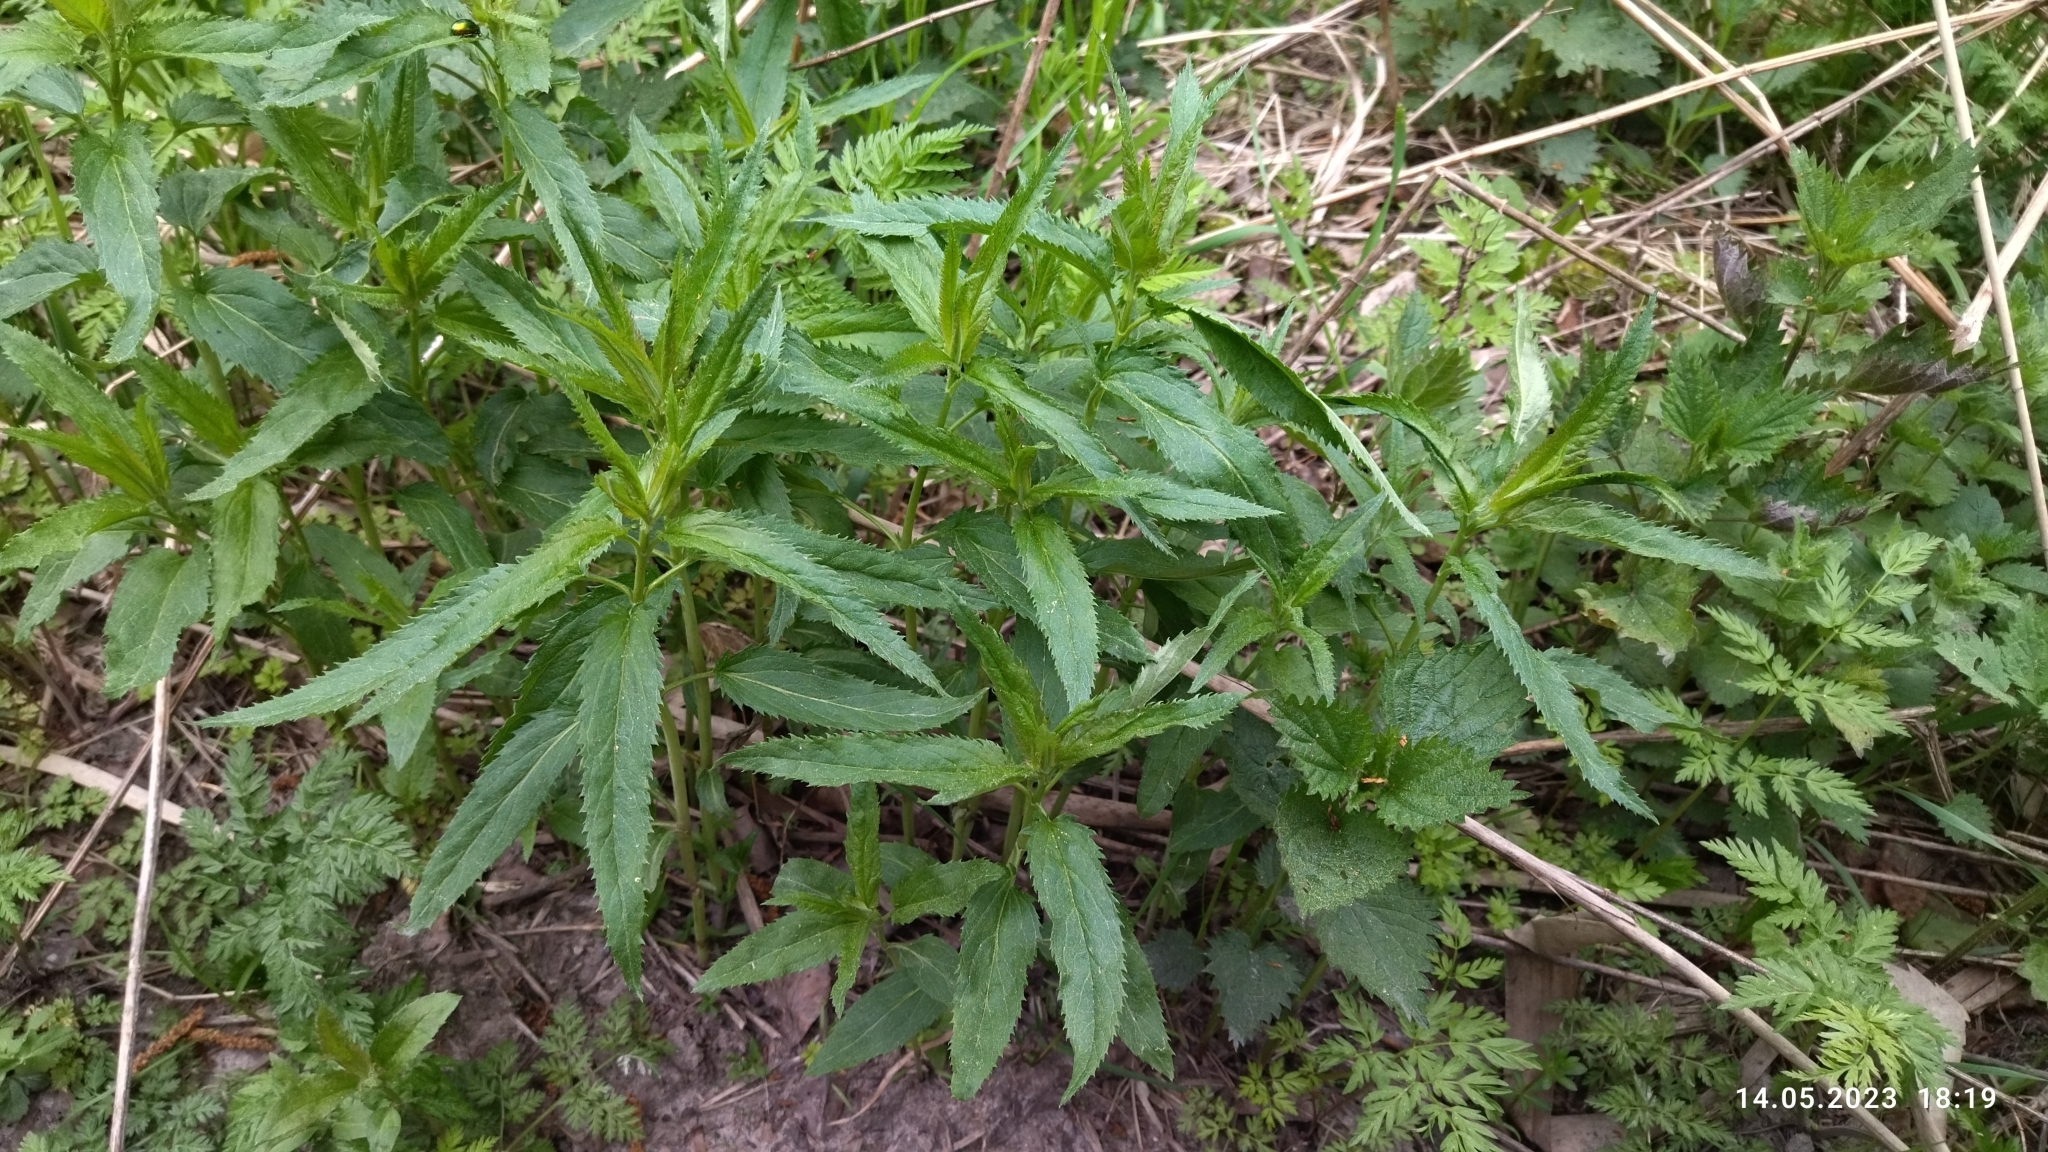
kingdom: Plantae
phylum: Tracheophyta
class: Magnoliopsida
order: Lamiales
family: Plantaginaceae
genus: Veronica
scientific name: Veronica longifolia
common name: Garden speedwell
